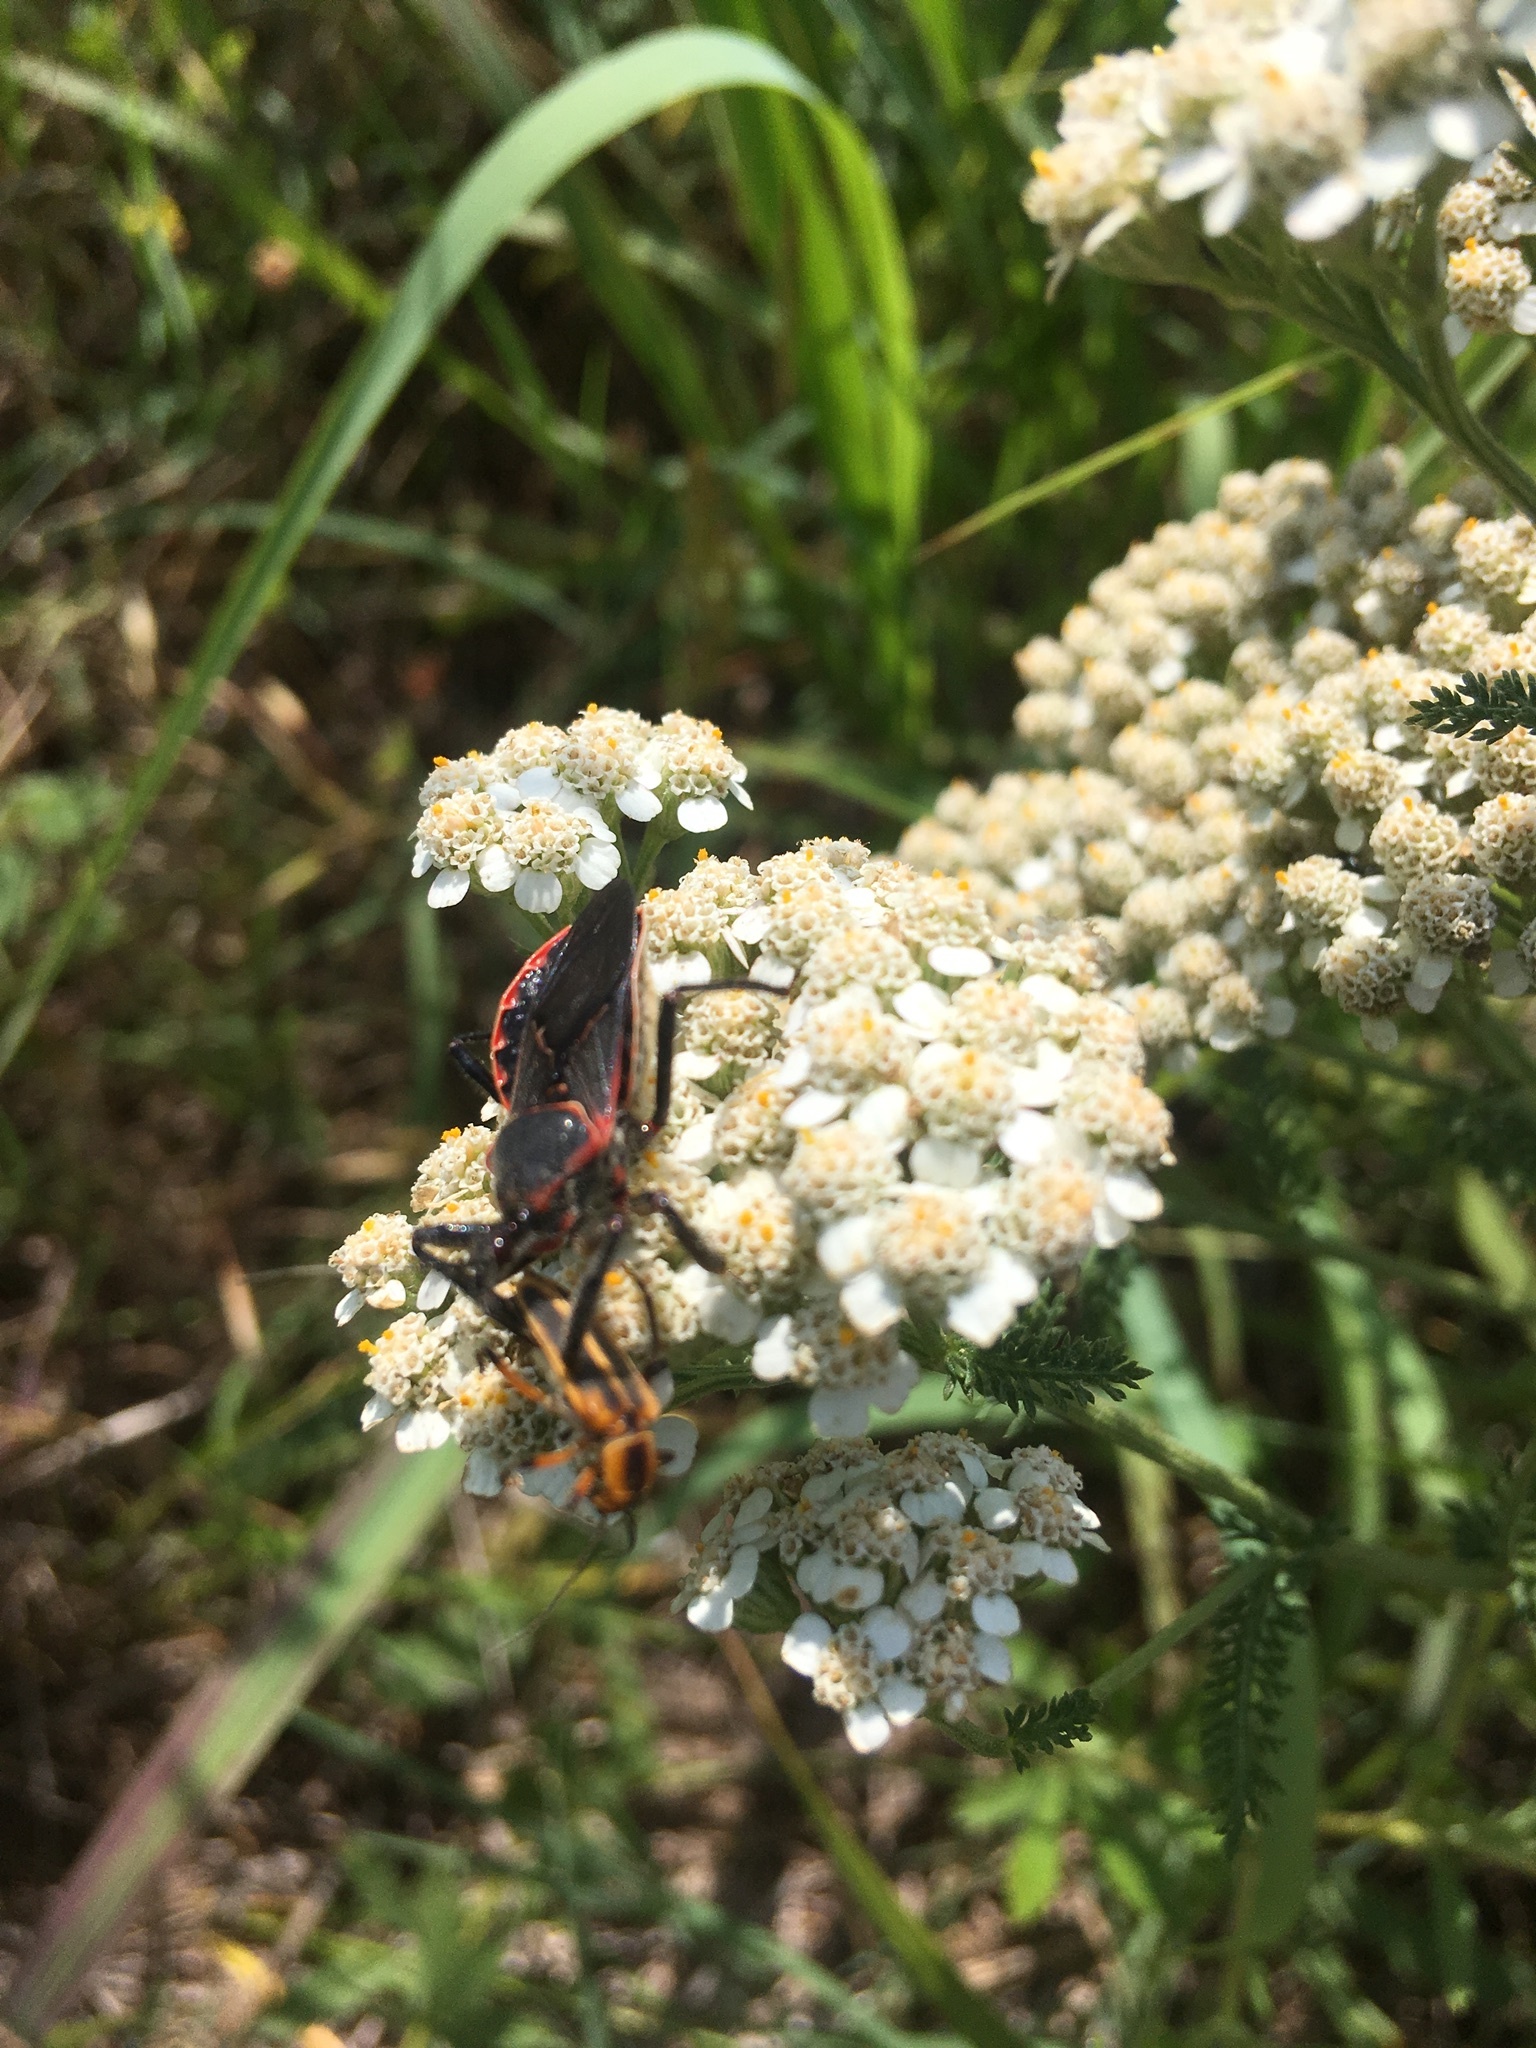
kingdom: Animalia
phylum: Arthropoda
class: Insecta
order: Hemiptera
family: Reduviidae
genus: Apiomerus
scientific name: Apiomerus crassipes
